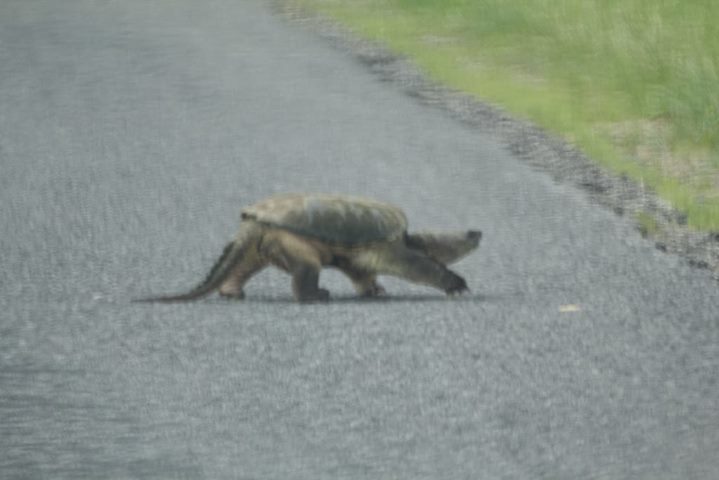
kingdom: Animalia
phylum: Chordata
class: Testudines
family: Chelydridae
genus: Chelydra
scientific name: Chelydra serpentina
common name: Common snapping turtle
